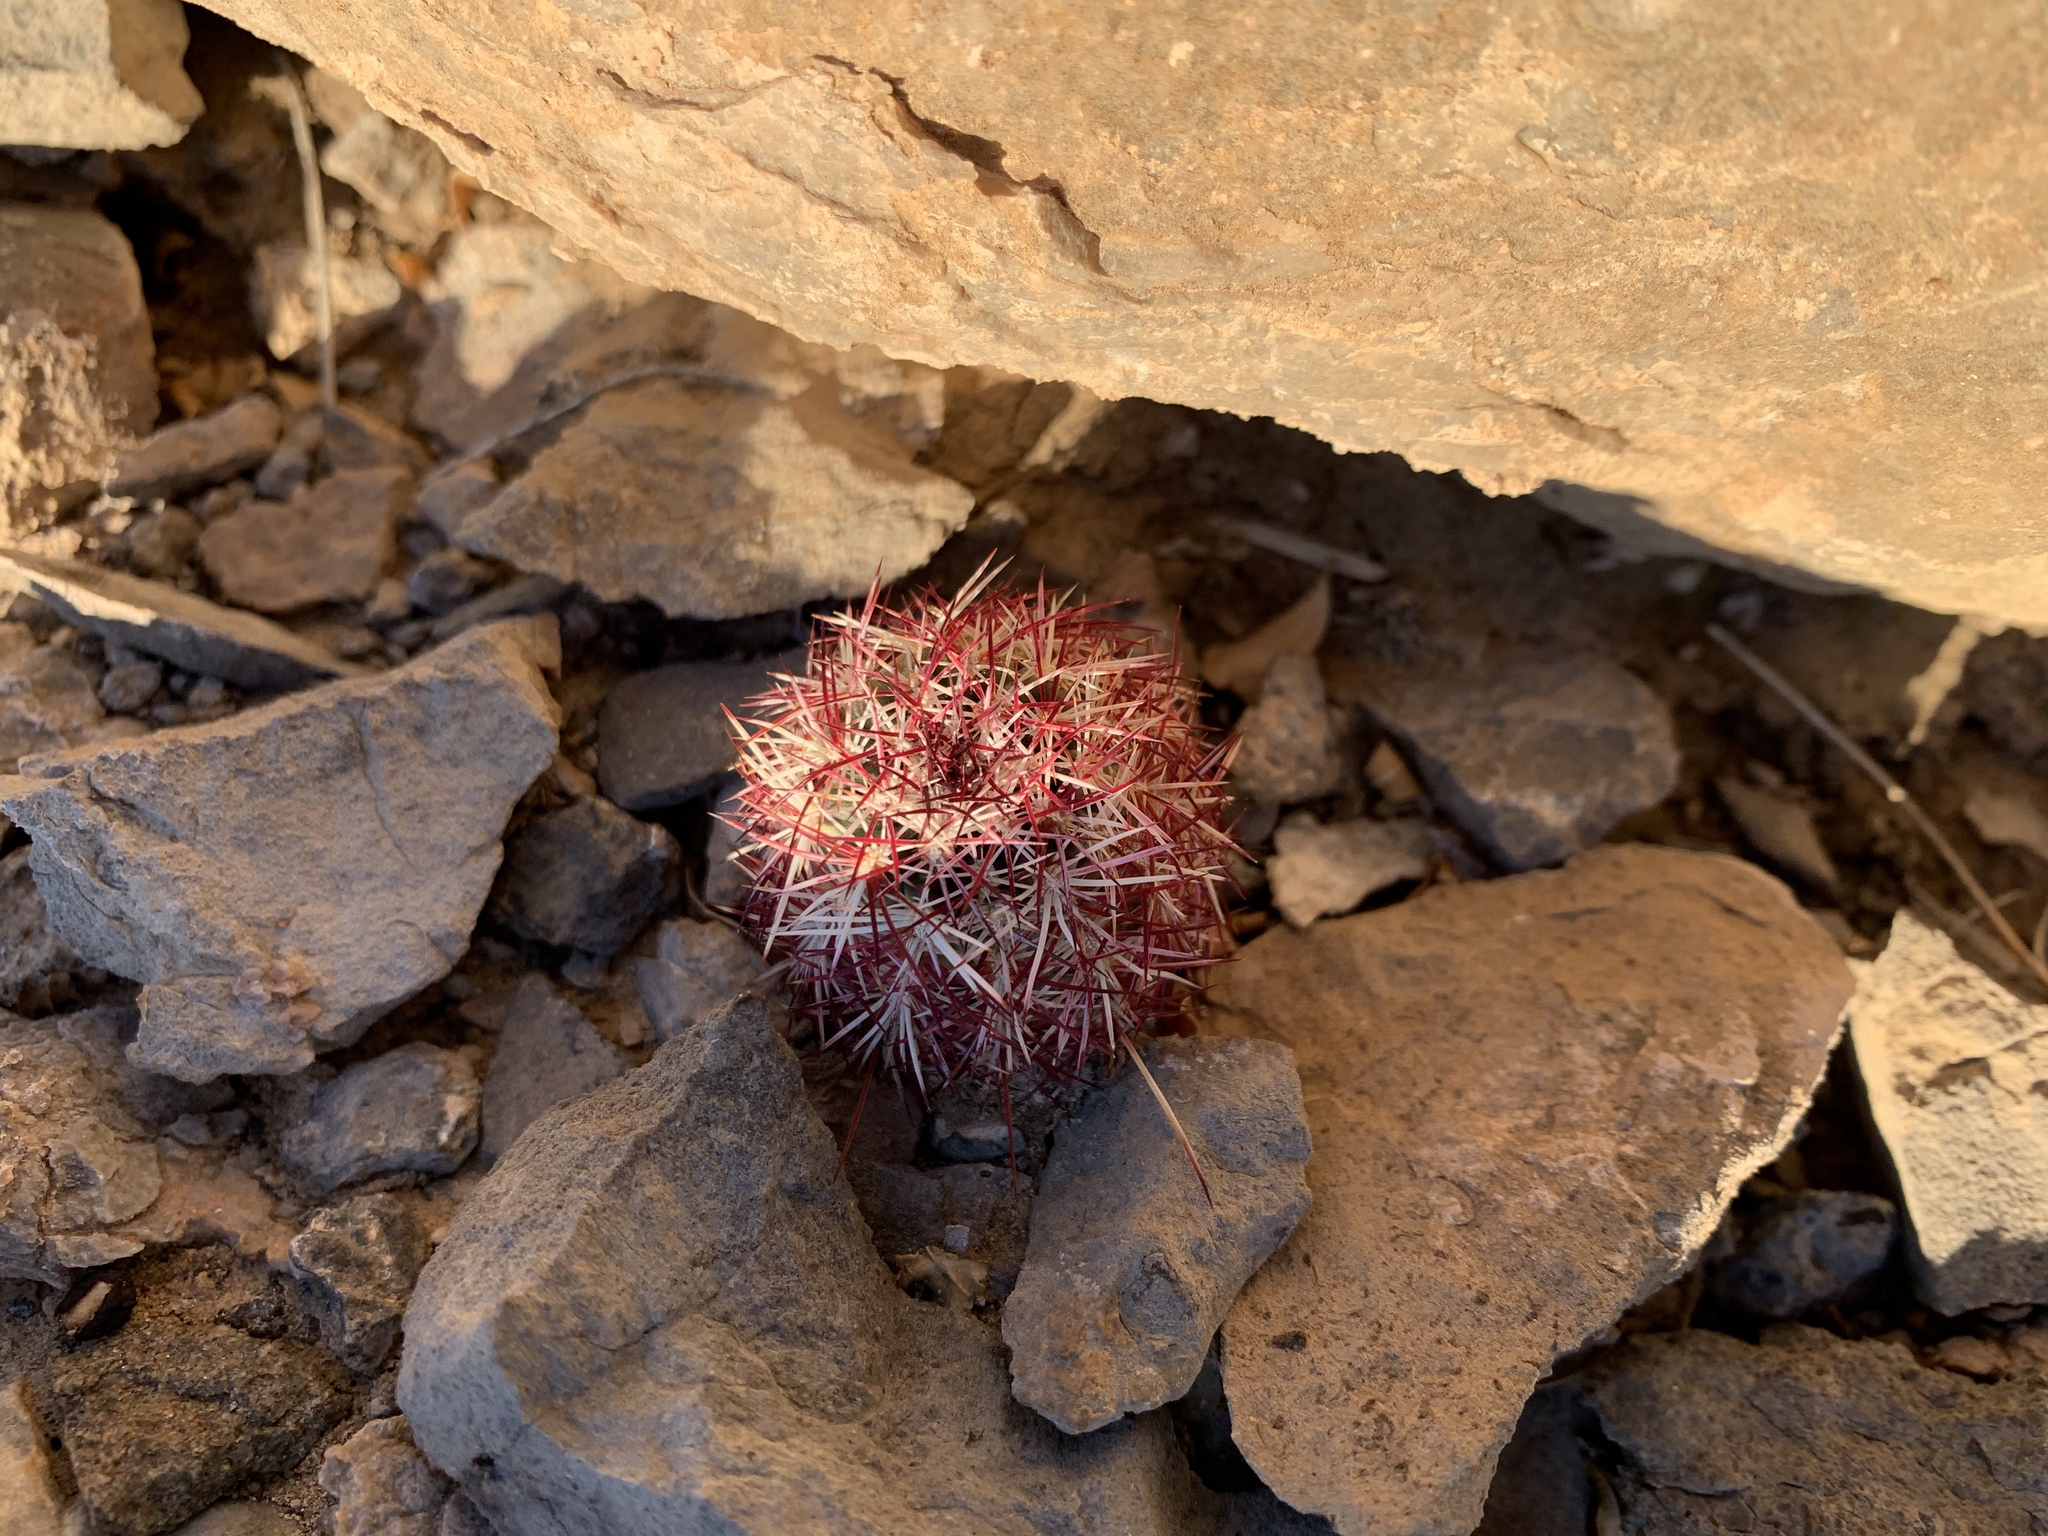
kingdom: Plantae
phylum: Tracheophyta
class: Magnoliopsida
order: Caryophyllales
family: Cactaceae
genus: Echinocereus
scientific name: Echinocereus viridiflorus
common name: Nylon hedgehog cactus
